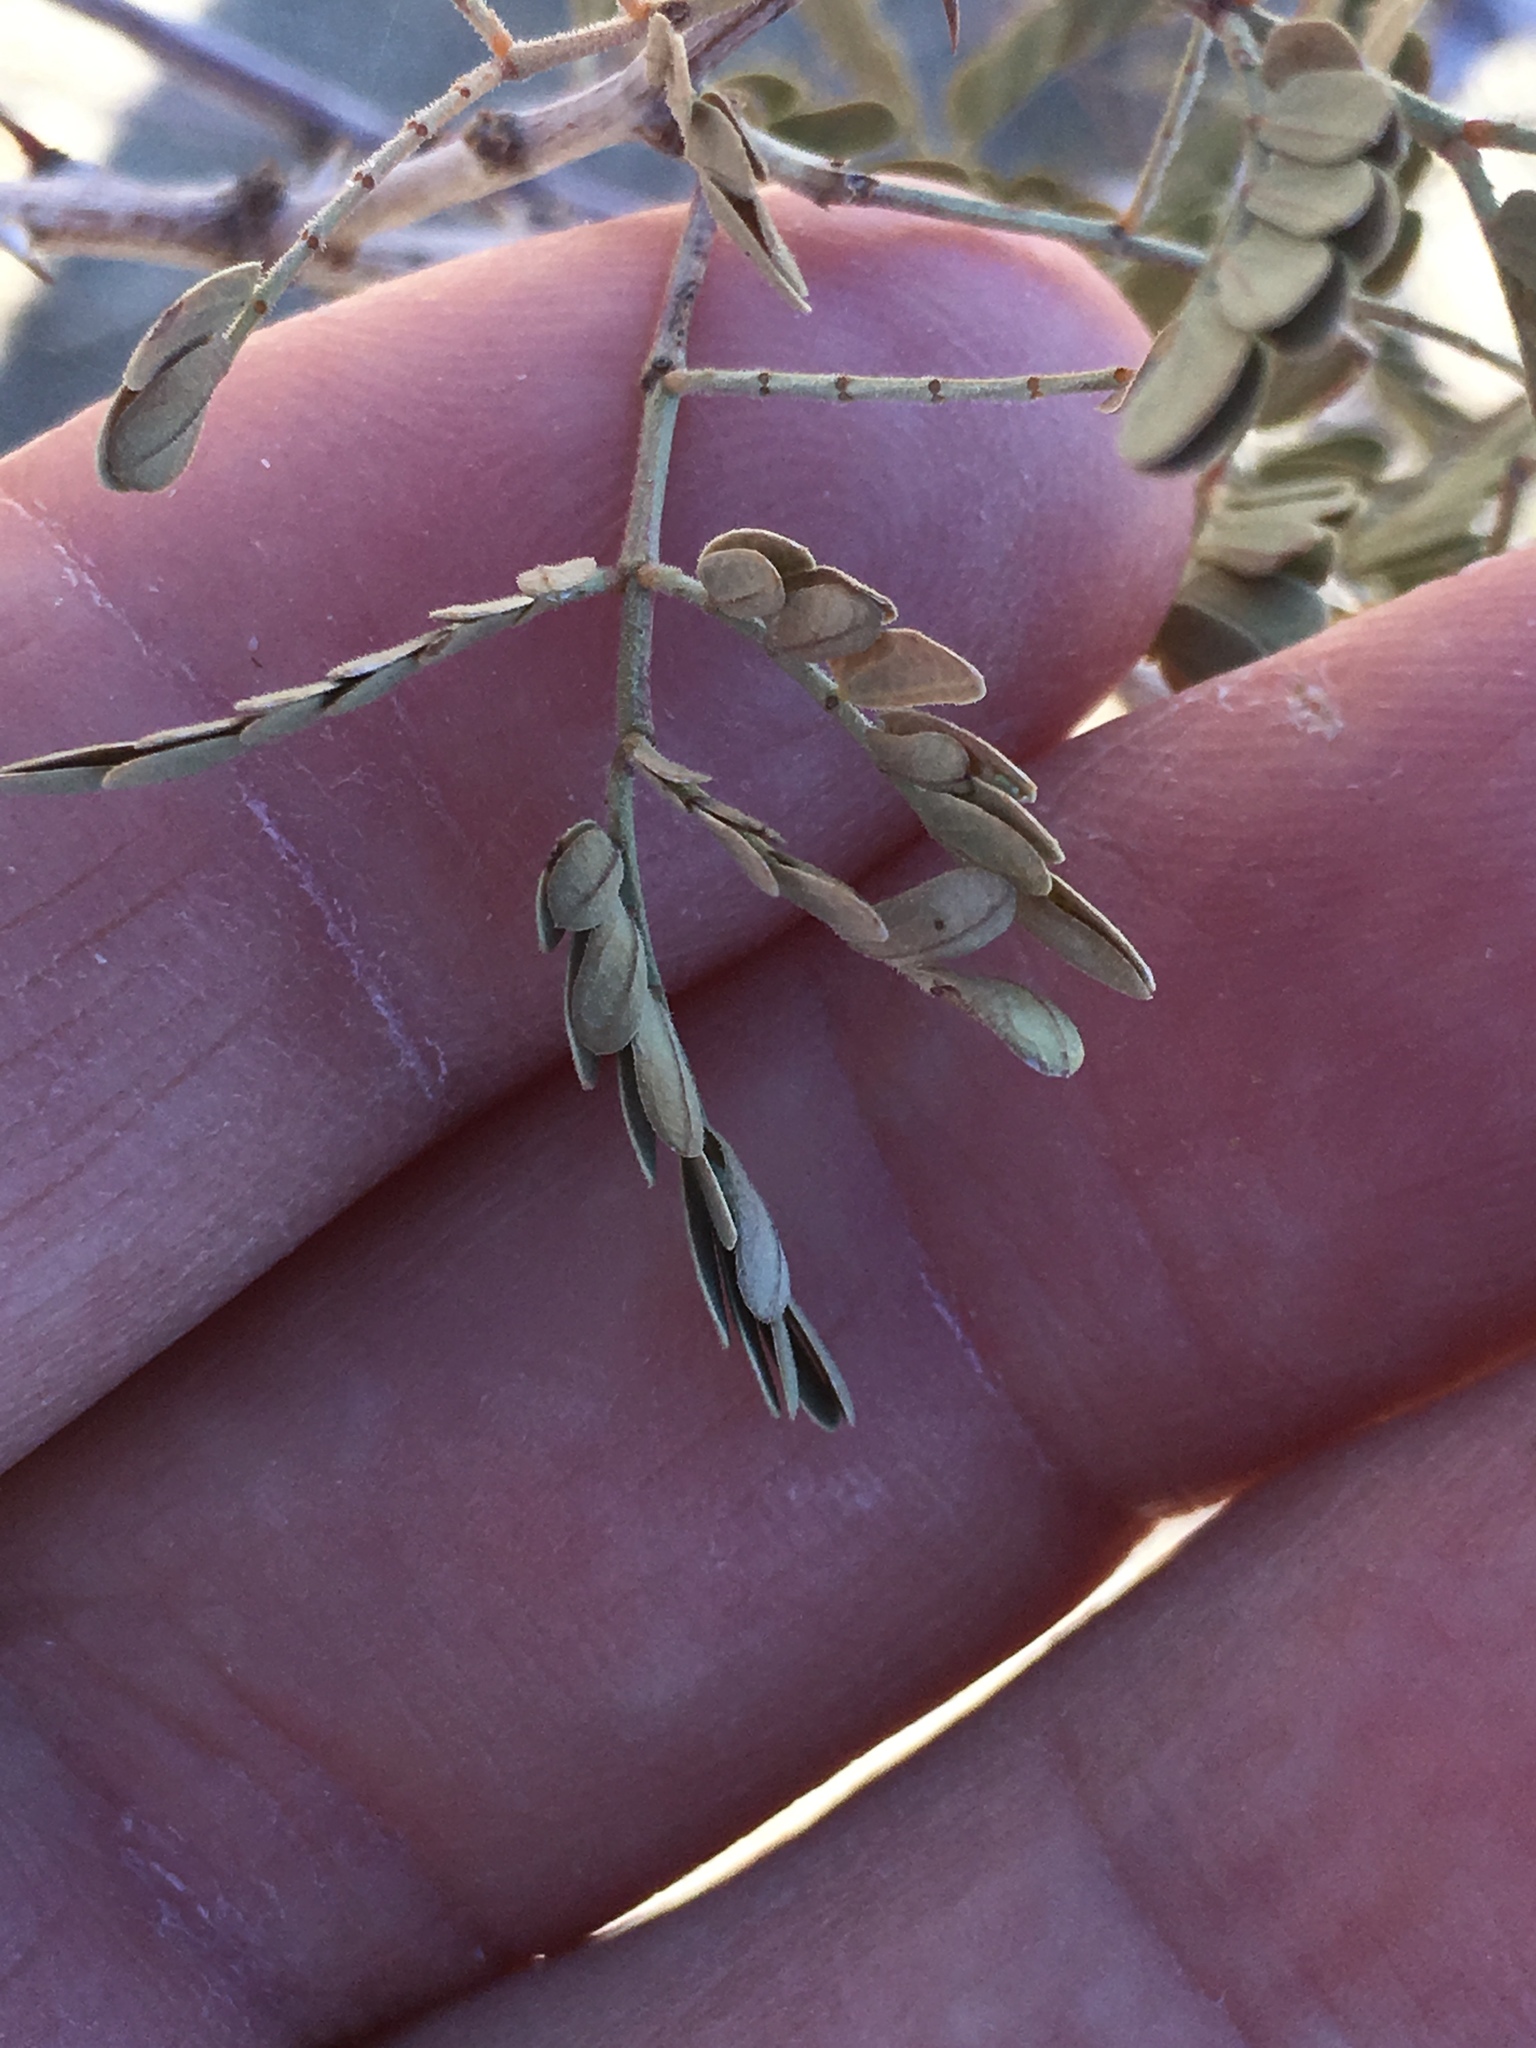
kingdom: Plantae
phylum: Tracheophyta
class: Magnoliopsida
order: Fabales
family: Fabaceae
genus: Senegalia
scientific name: Senegalia greggii
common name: Texas-mimosa
